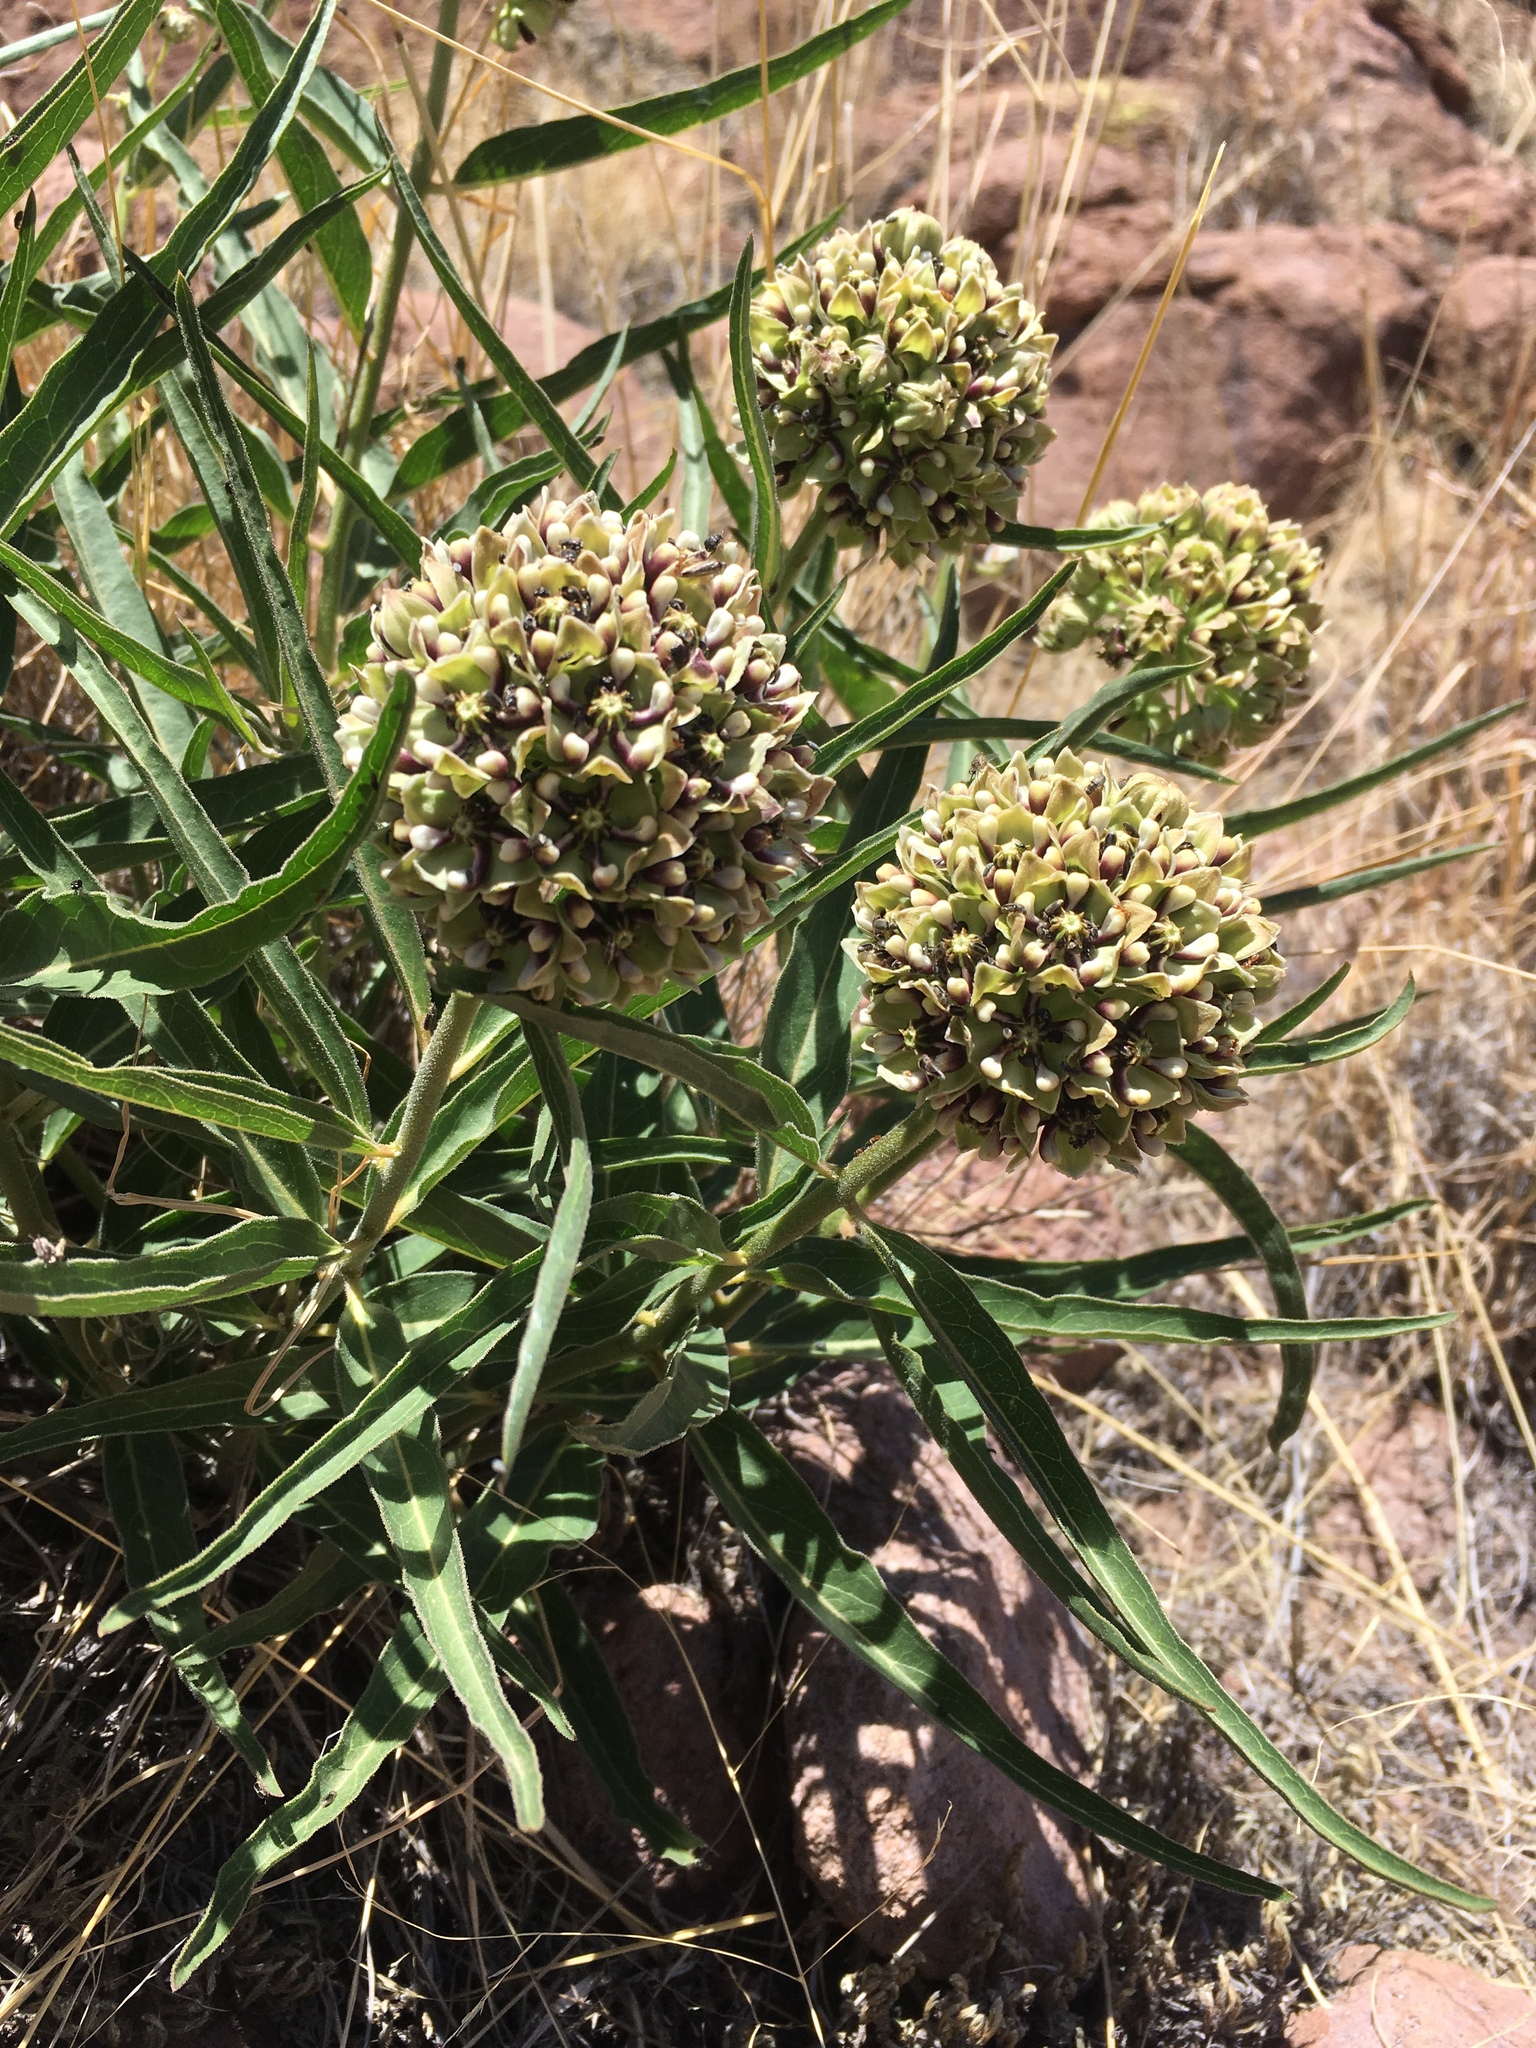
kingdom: Plantae
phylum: Tracheophyta
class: Magnoliopsida
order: Gentianales
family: Apocynaceae
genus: Asclepias
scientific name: Asclepias asperula
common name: Antelope horns
